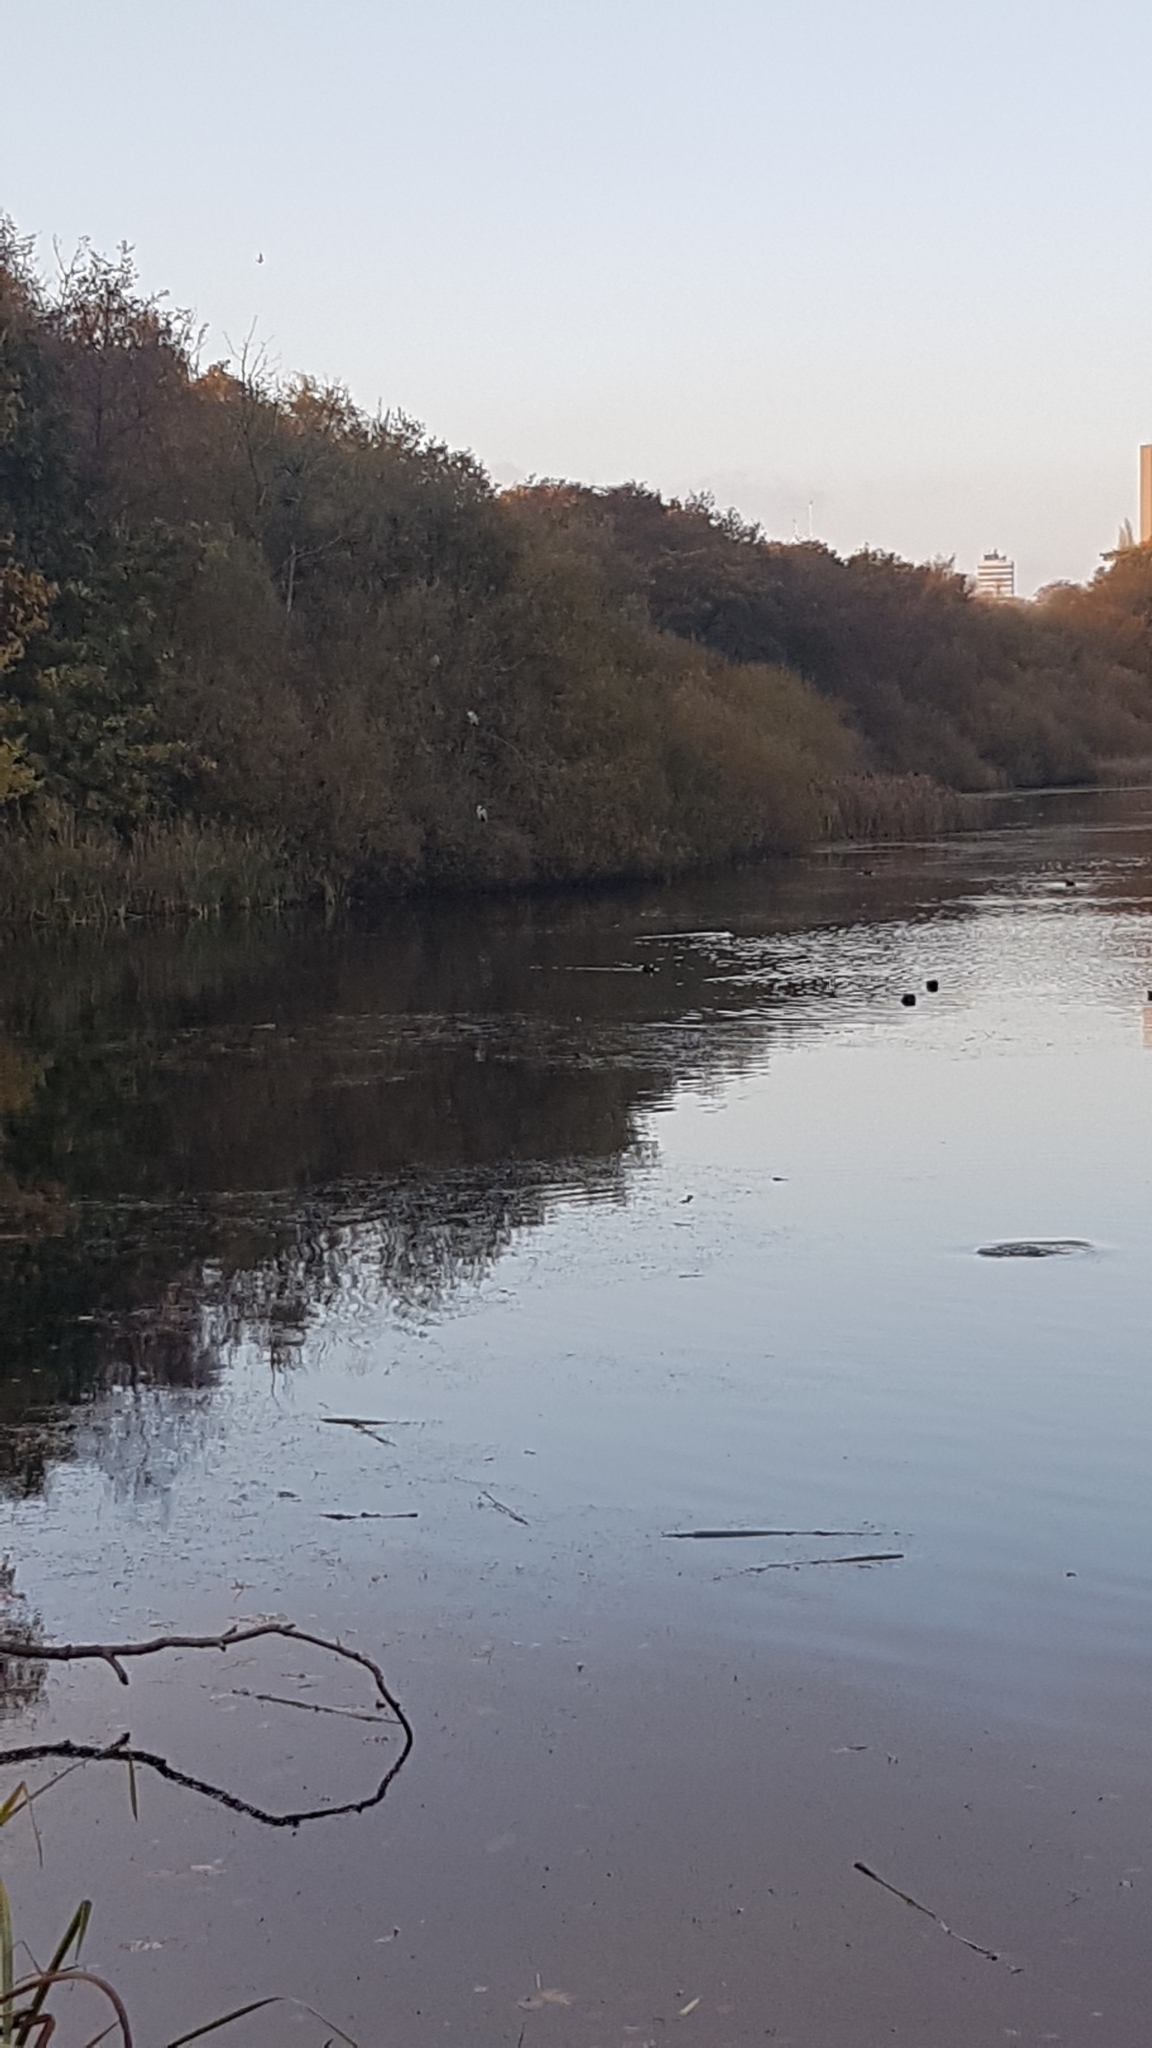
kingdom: Animalia
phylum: Chordata
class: Aves
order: Pelecaniformes
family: Ardeidae
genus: Ardea
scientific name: Ardea cinerea
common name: Grey heron
